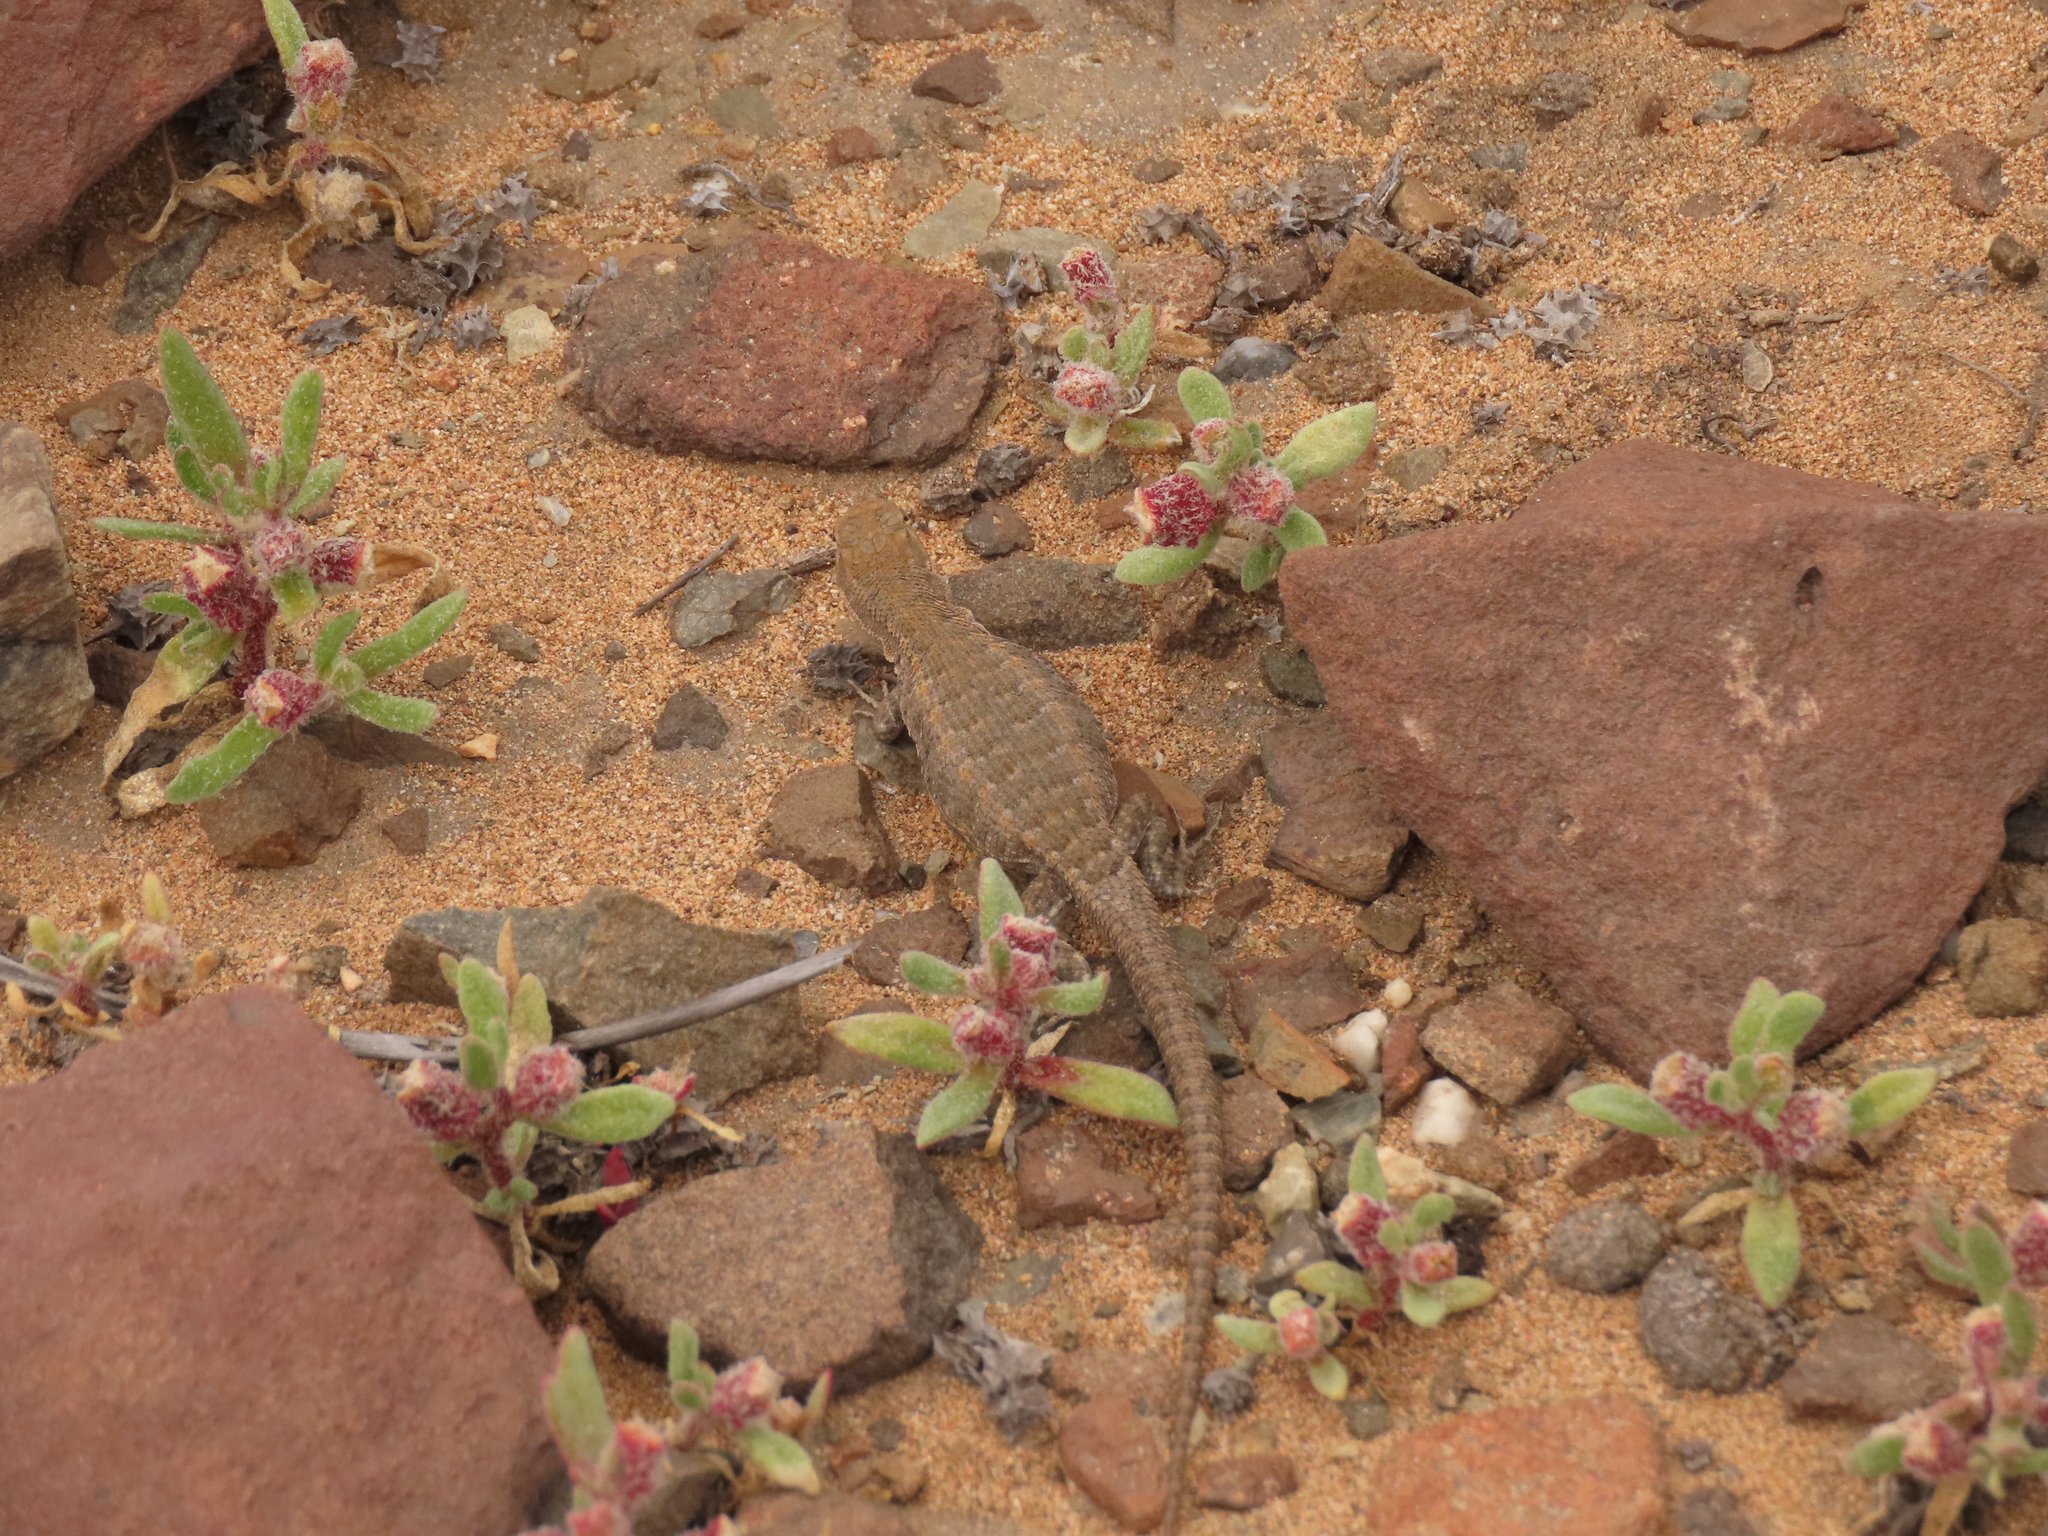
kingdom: Animalia
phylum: Chordata
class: Squamata
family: Liolaemidae
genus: Liolaemus
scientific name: Liolaemus nigromaculatus
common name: Many-spotted tree iguana
